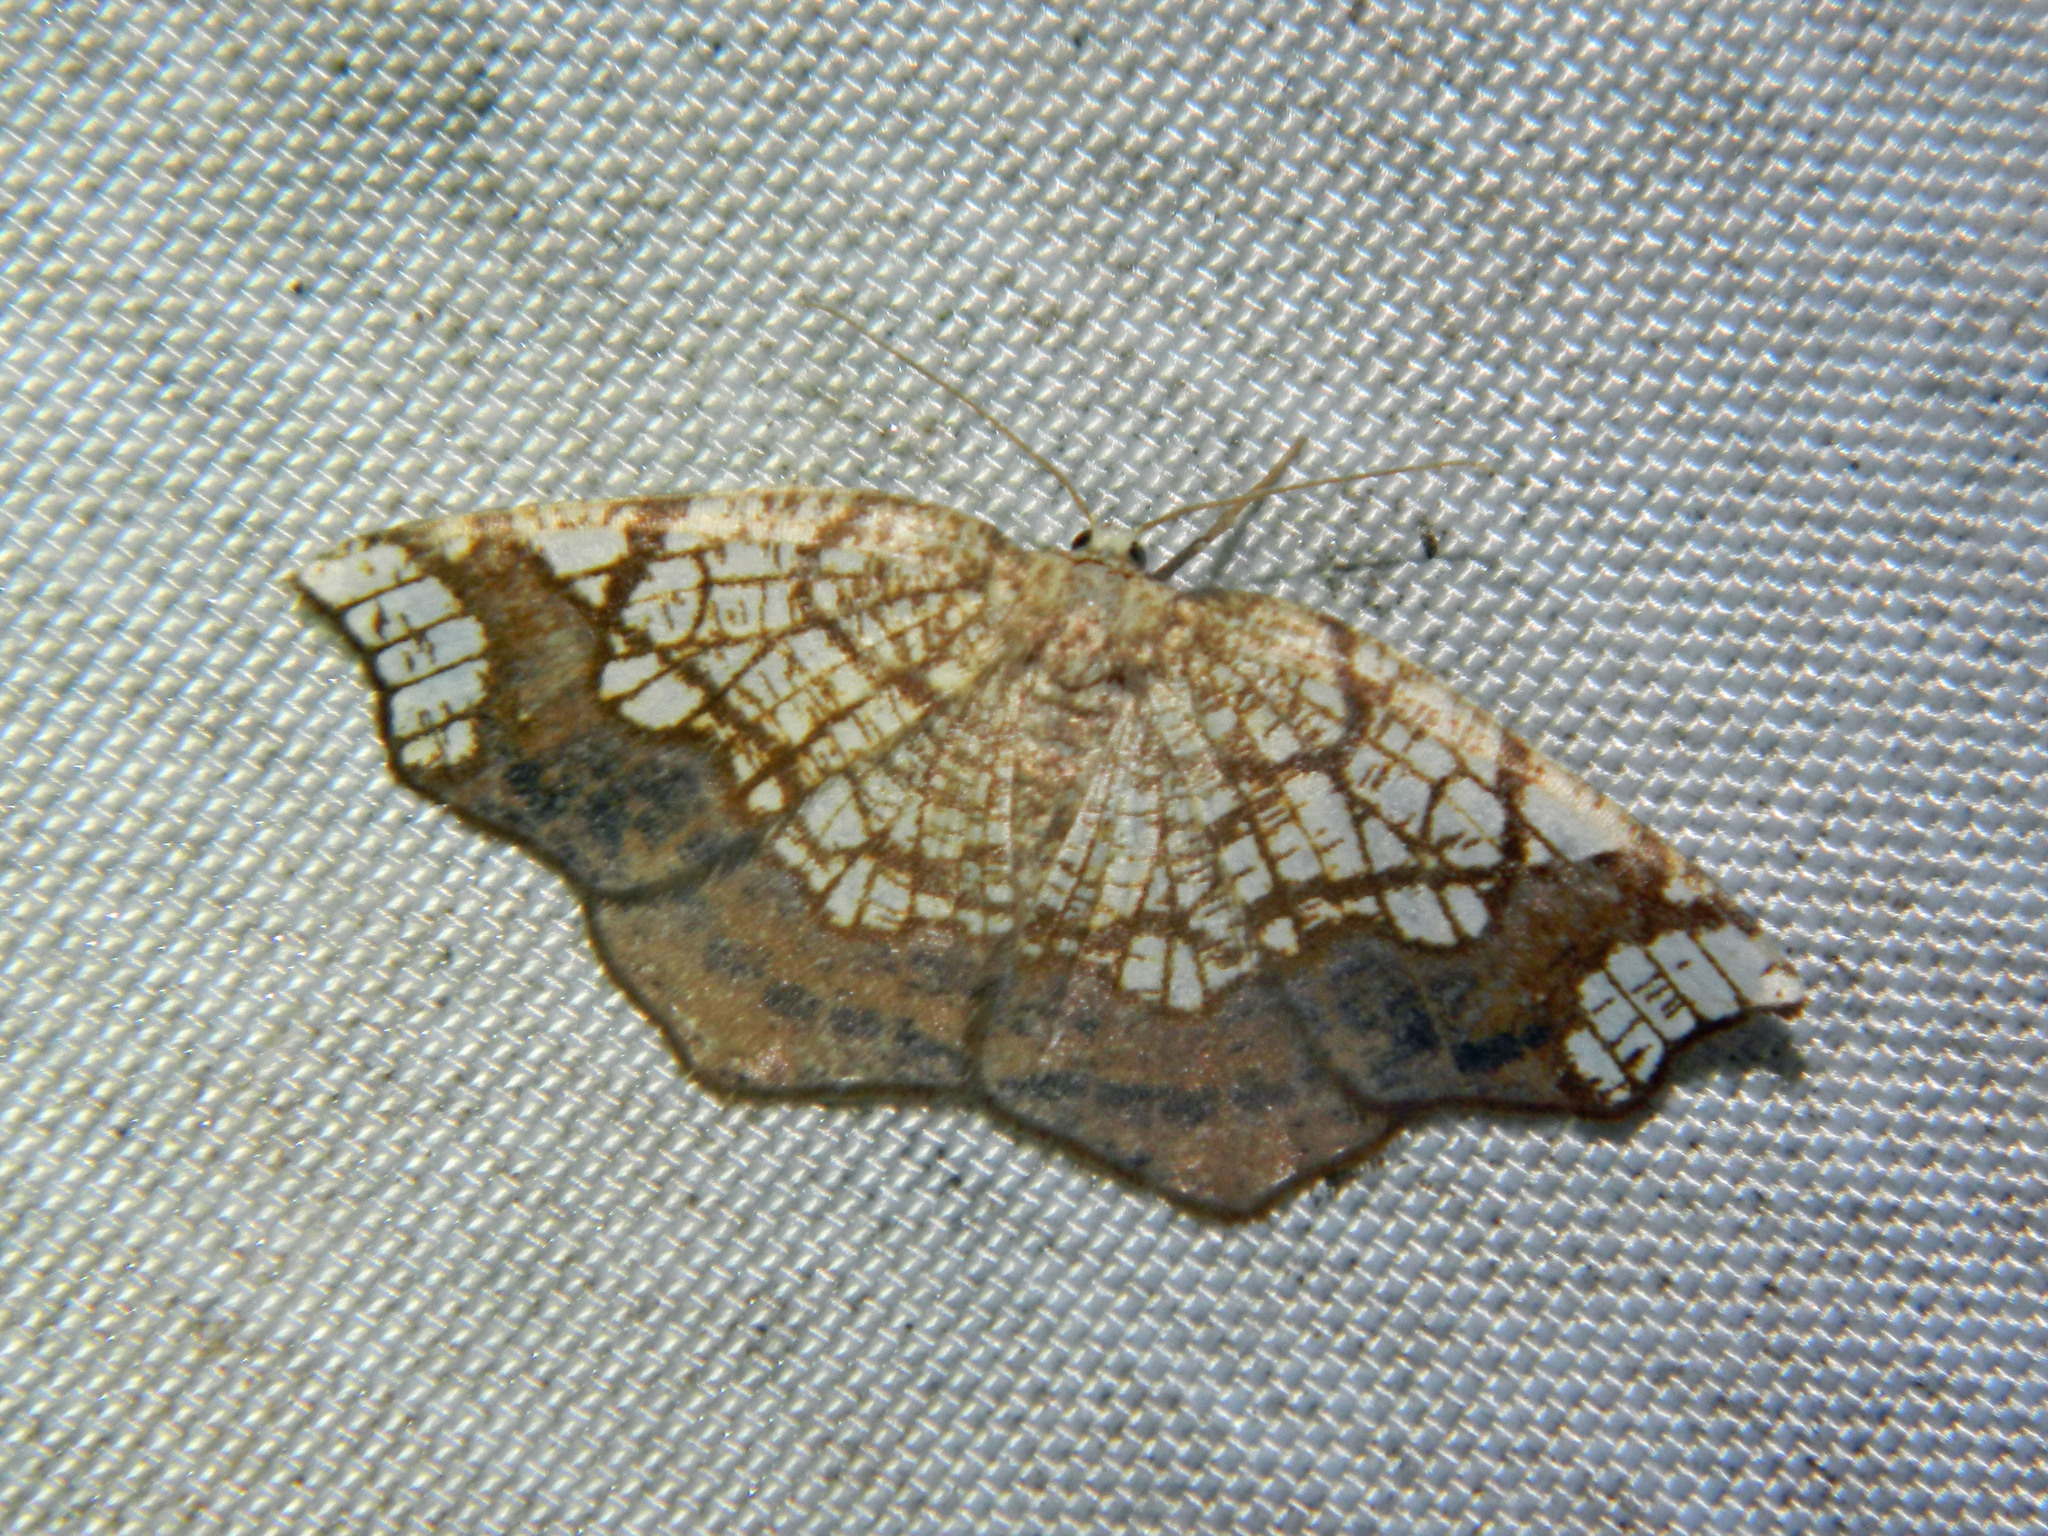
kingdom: Animalia
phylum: Arthropoda
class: Insecta
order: Lepidoptera
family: Geometridae
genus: Nematocampa
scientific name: Nematocampa resistaria
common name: Horned spanworm moth
